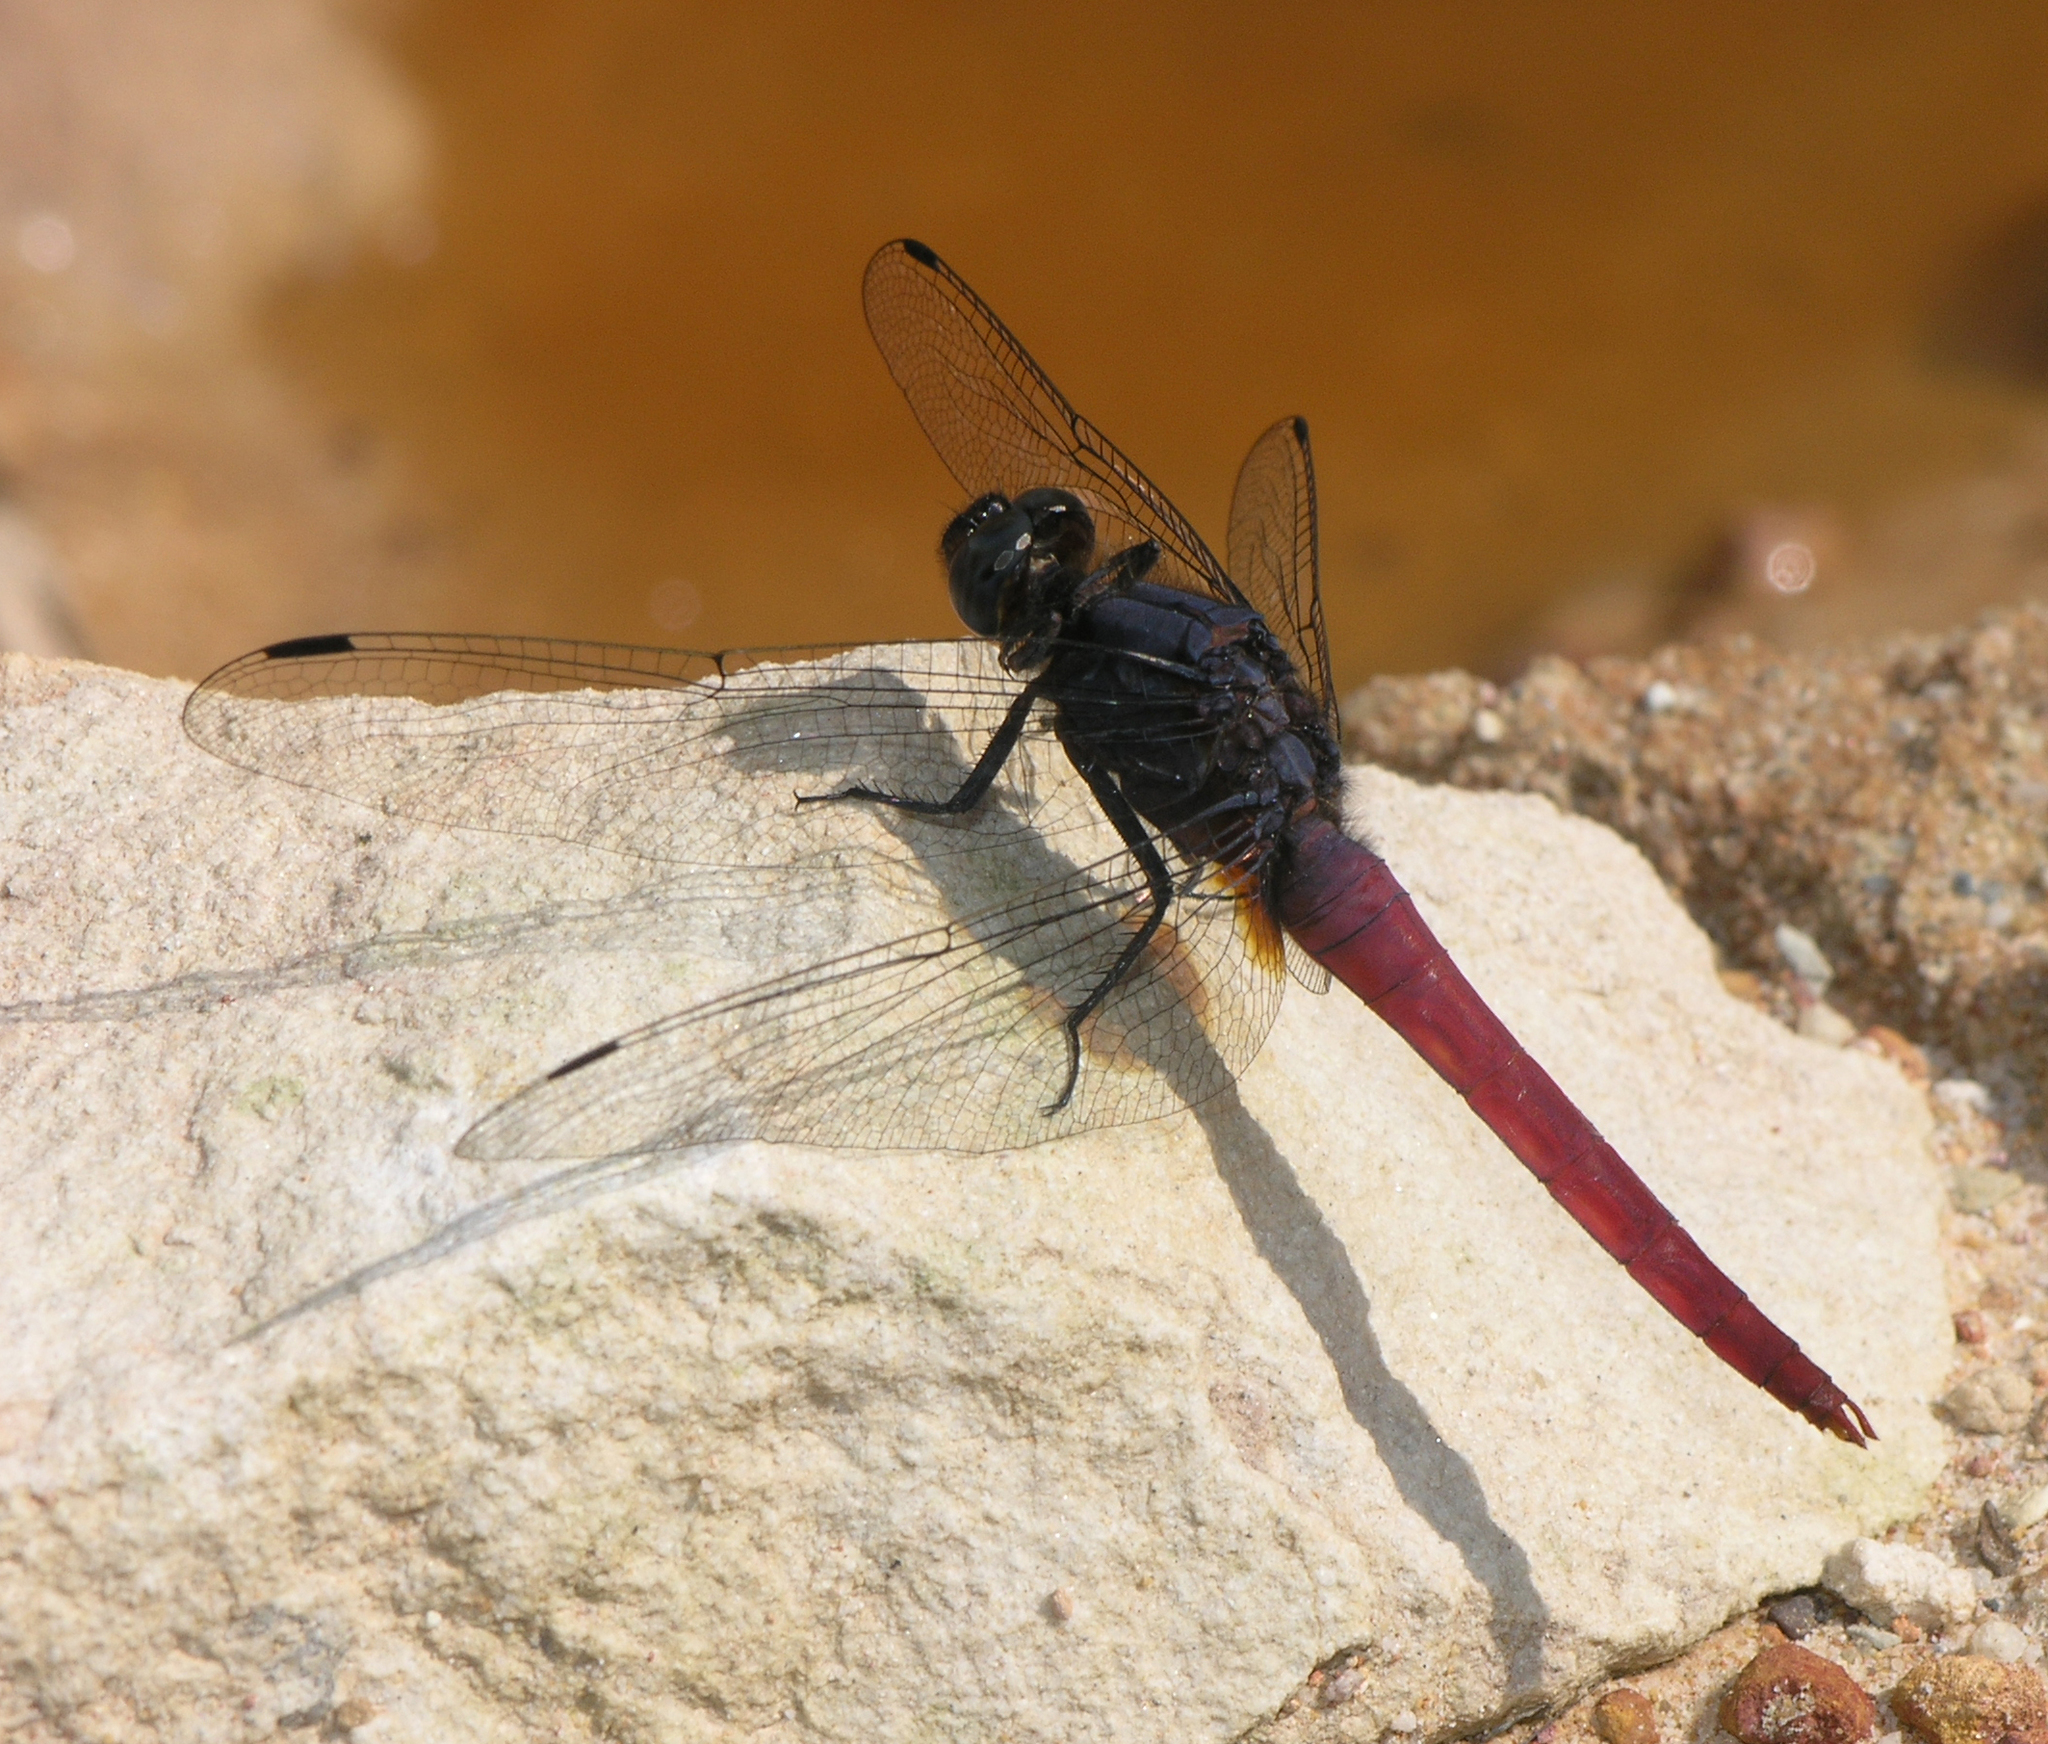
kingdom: Animalia
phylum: Arthropoda
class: Insecta
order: Odonata
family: Libellulidae
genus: Orthetrum
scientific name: Orthetrum pruinosum
